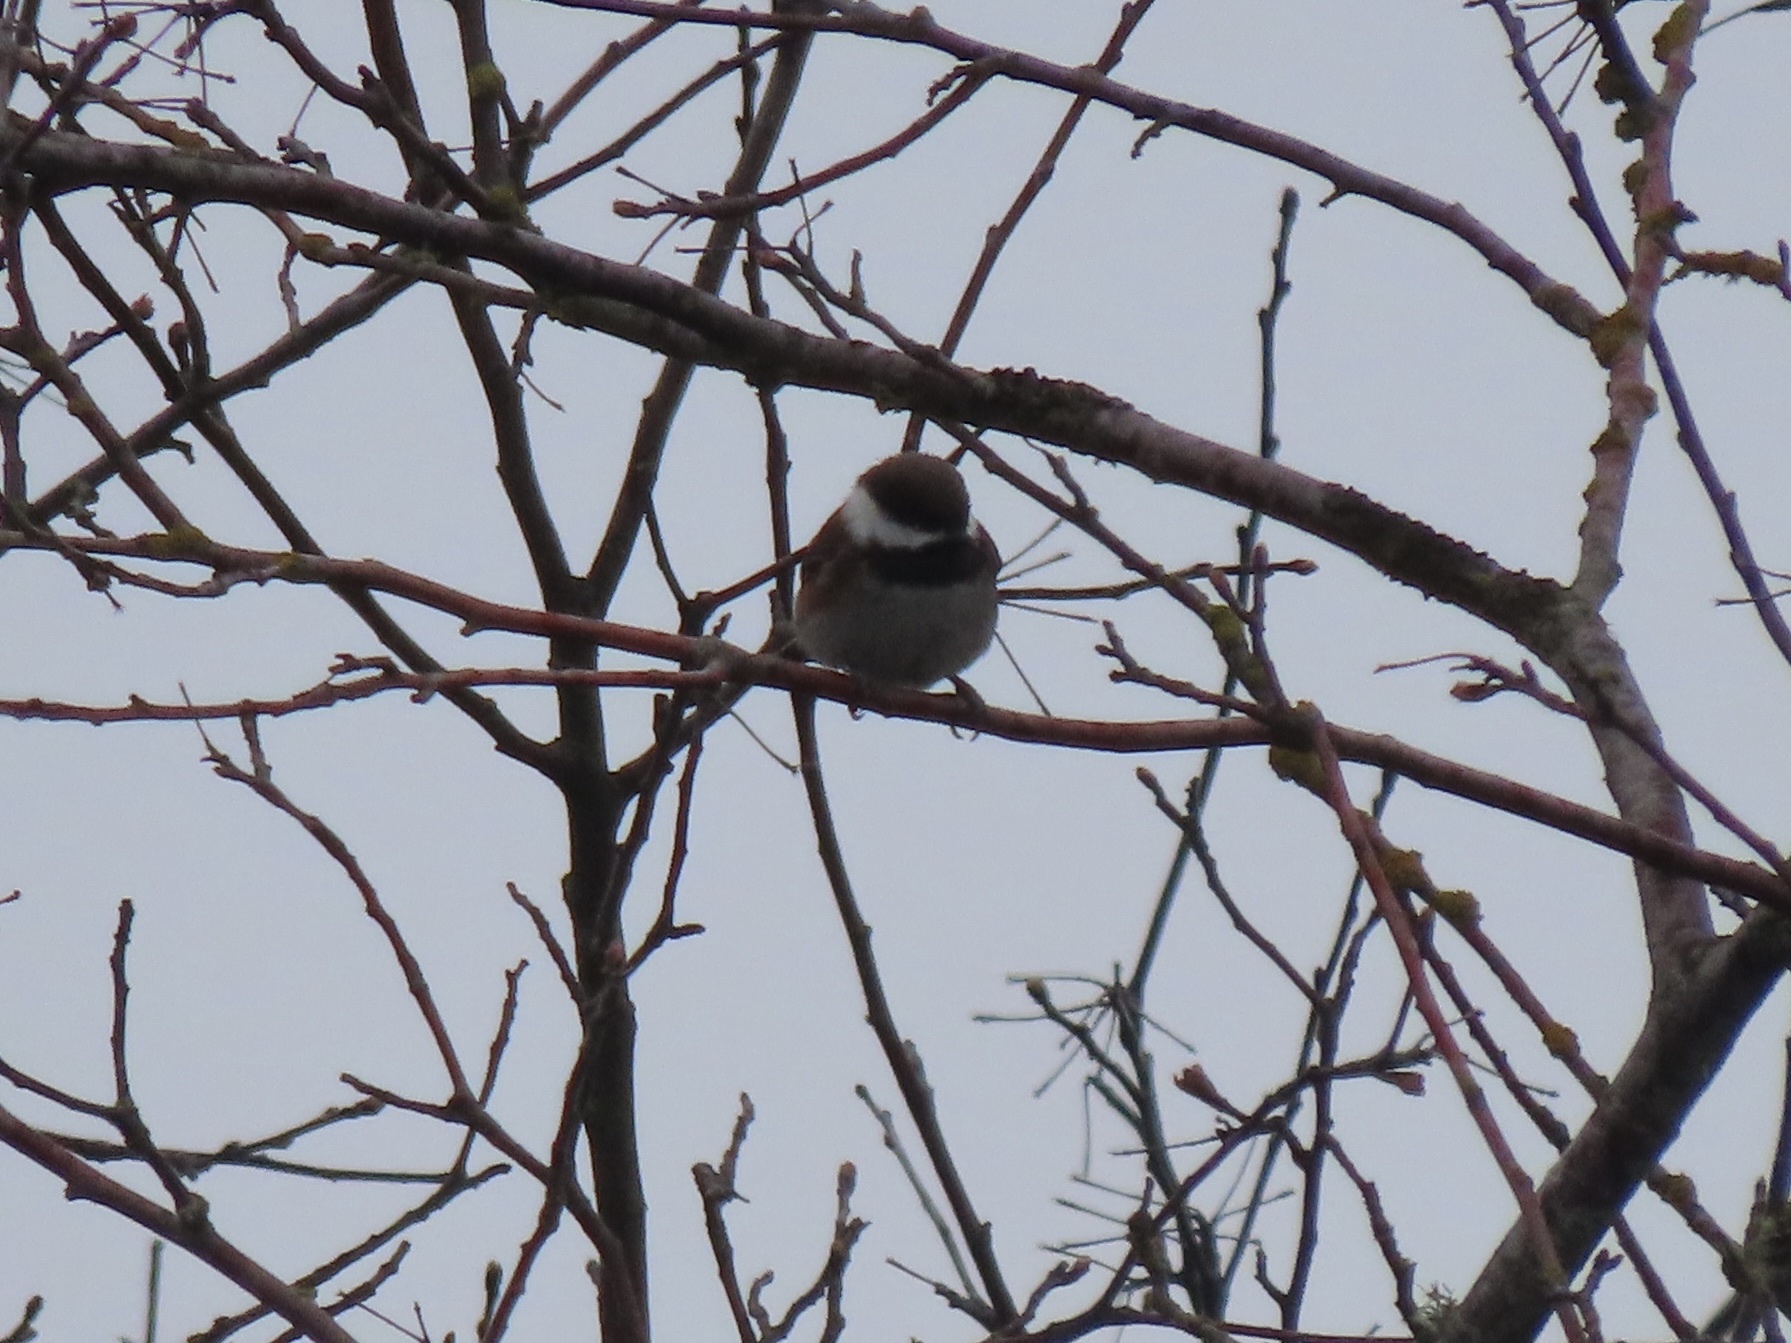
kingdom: Animalia
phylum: Chordata
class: Aves
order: Passeriformes
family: Paridae
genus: Poecile
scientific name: Poecile rufescens
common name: Chestnut-backed chickadee
